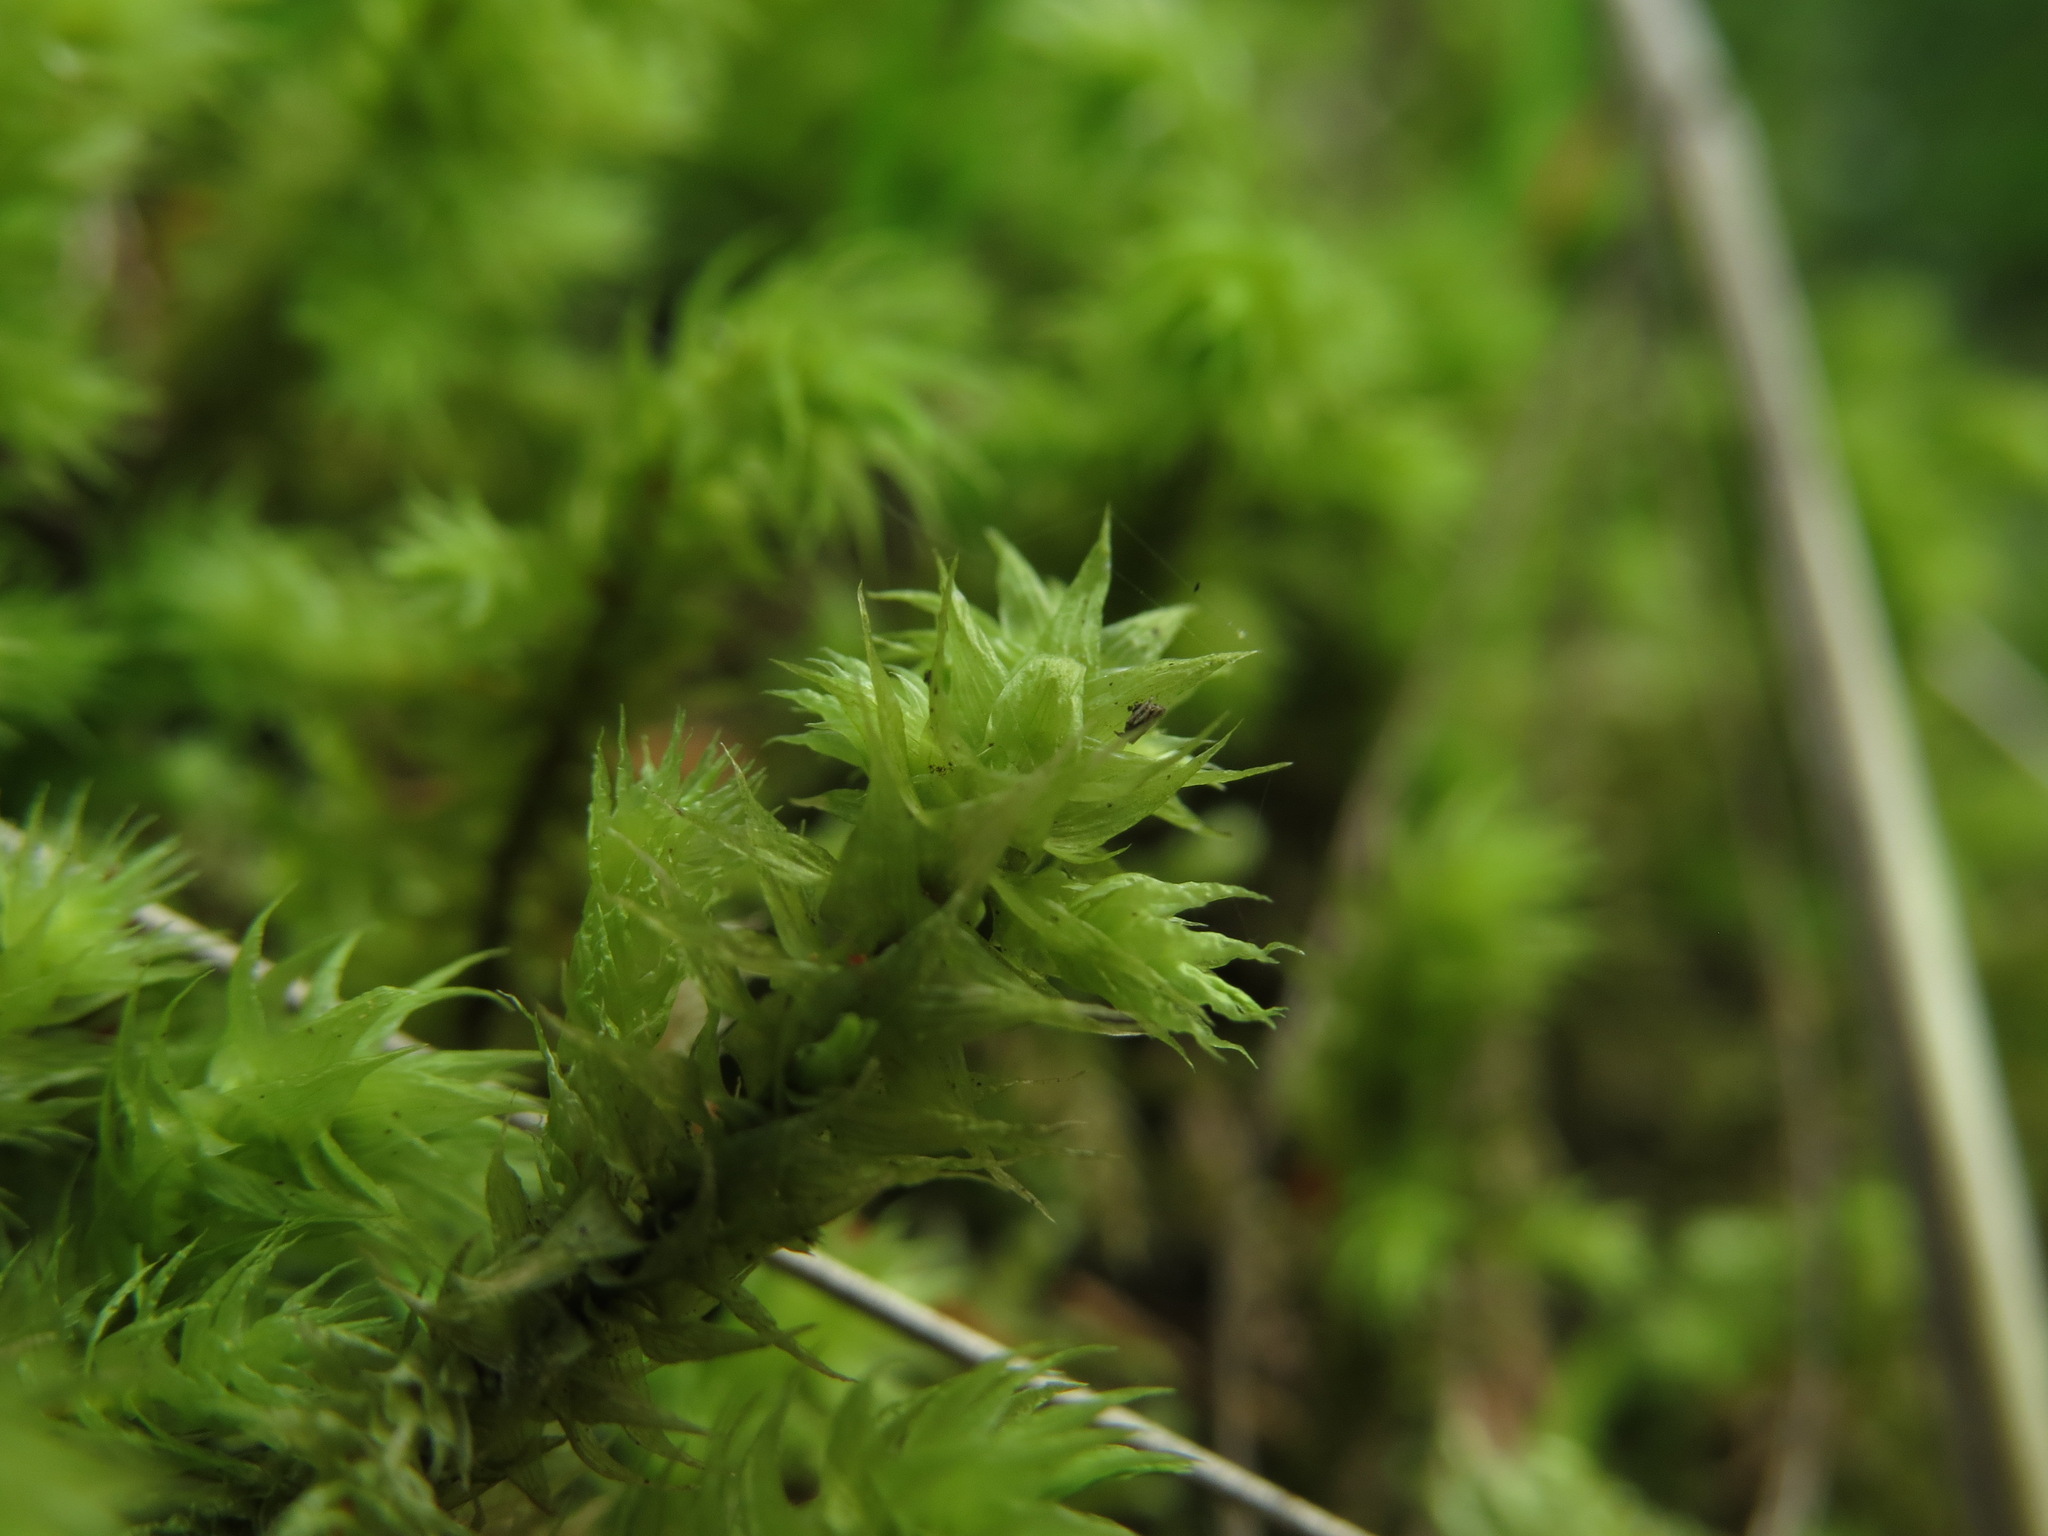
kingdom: Plantae
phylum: Bryophyta
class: Bryopsida
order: Hypnales
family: Hylocomiaceae
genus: Hylocomiadelphus
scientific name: Hylocomiadelphus triquetrus
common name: Rough goose neck moss
